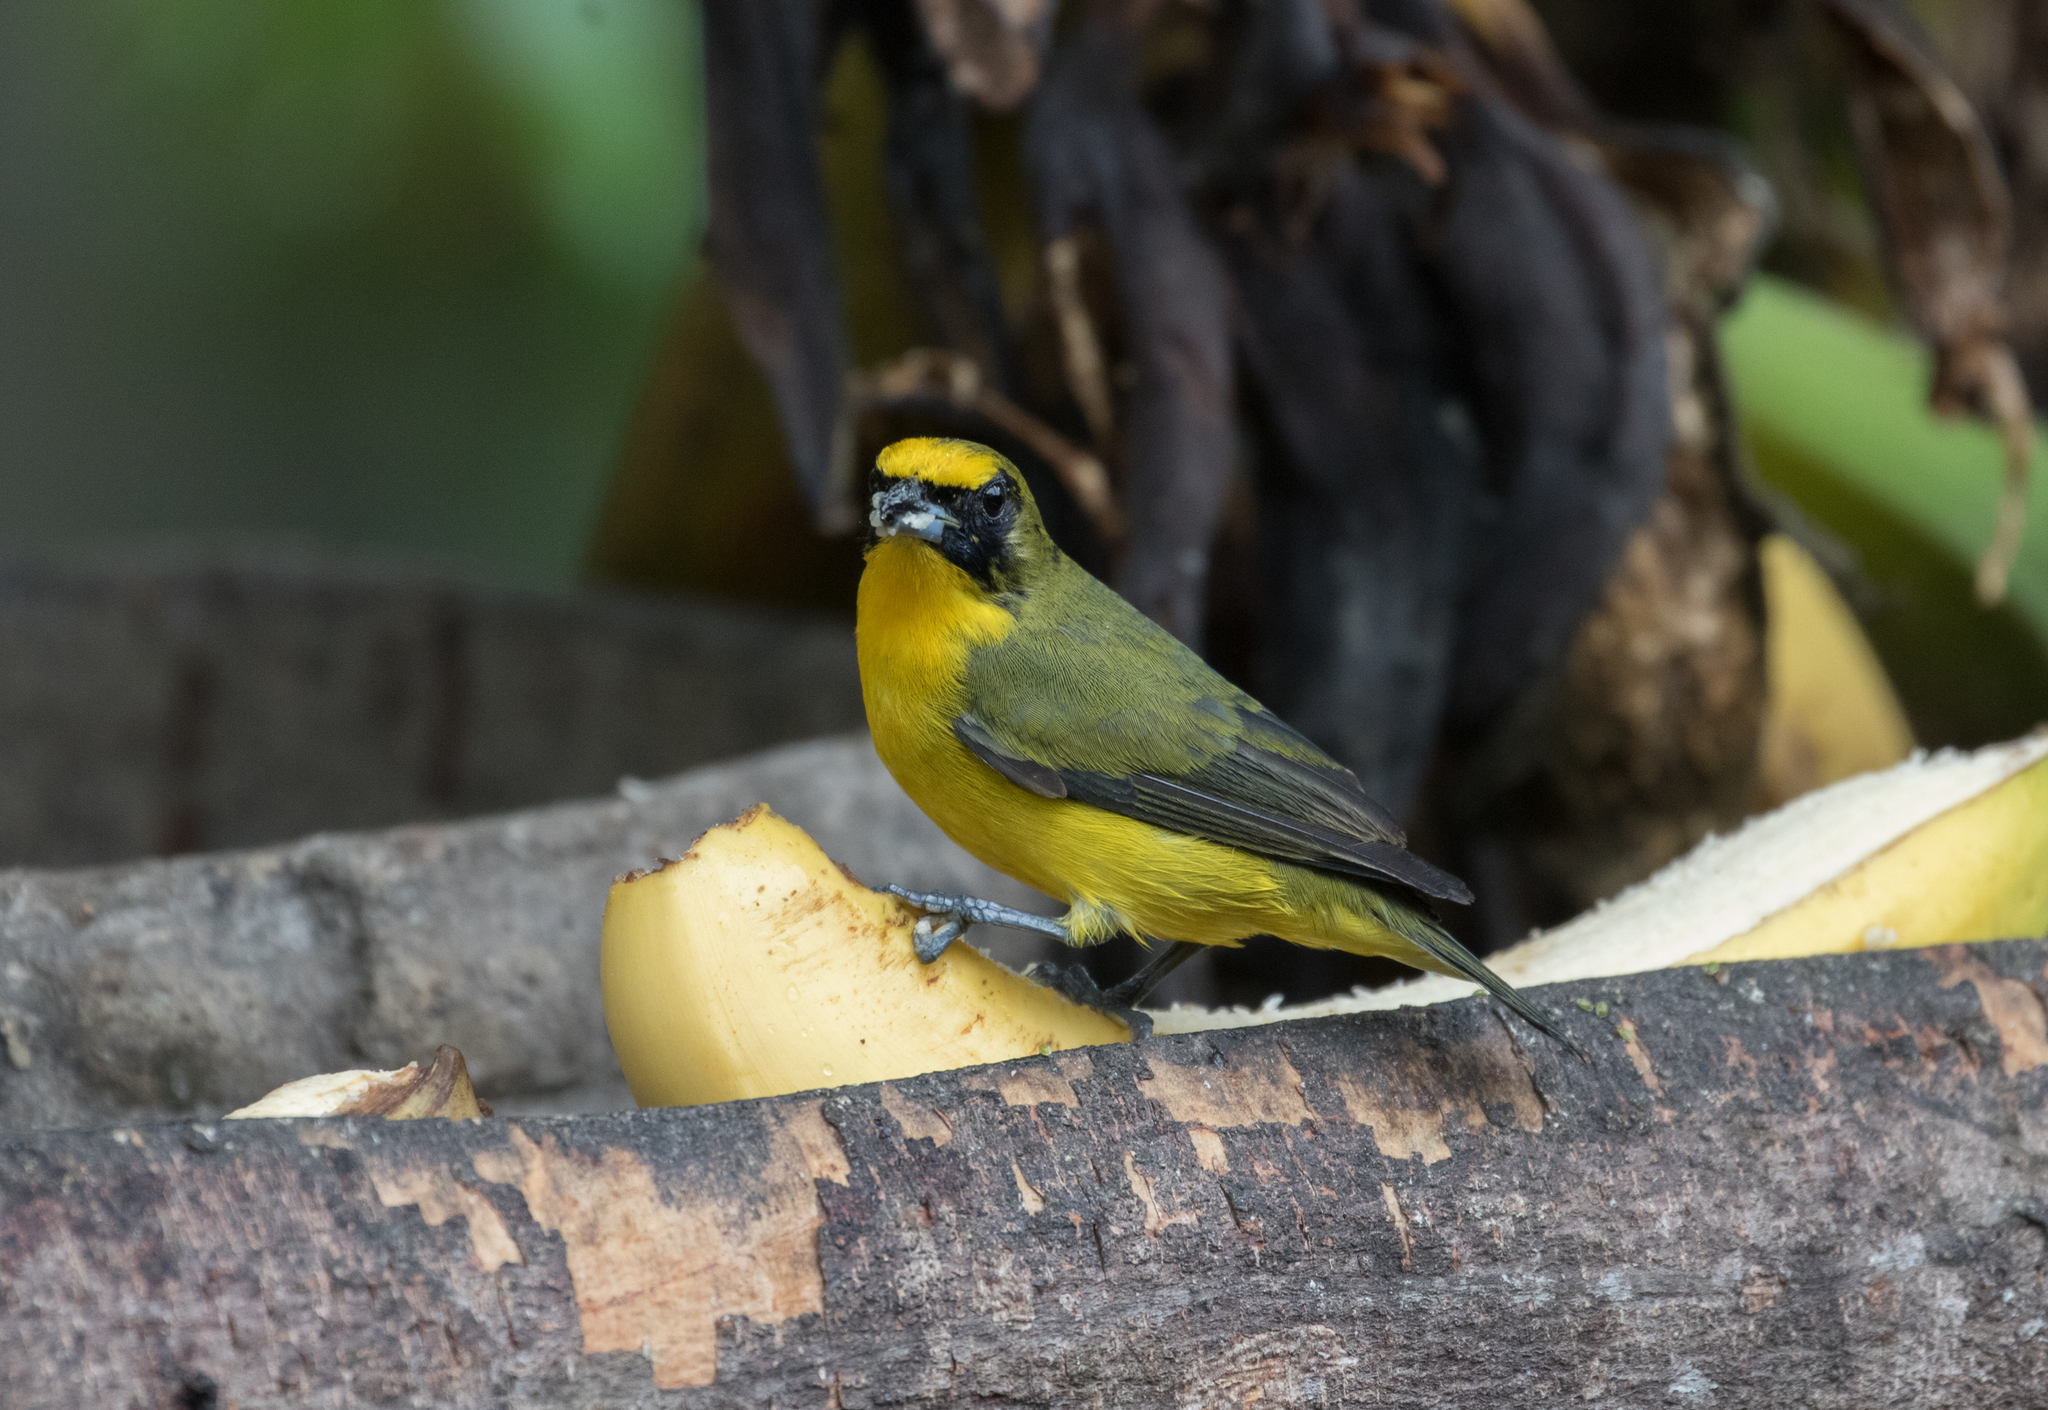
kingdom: Animalia
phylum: Chordata
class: Aves
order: Passeriformes
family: Fringillidae
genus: Euphonia
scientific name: Euphonia laniirostris
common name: Thick-billed euphonia
